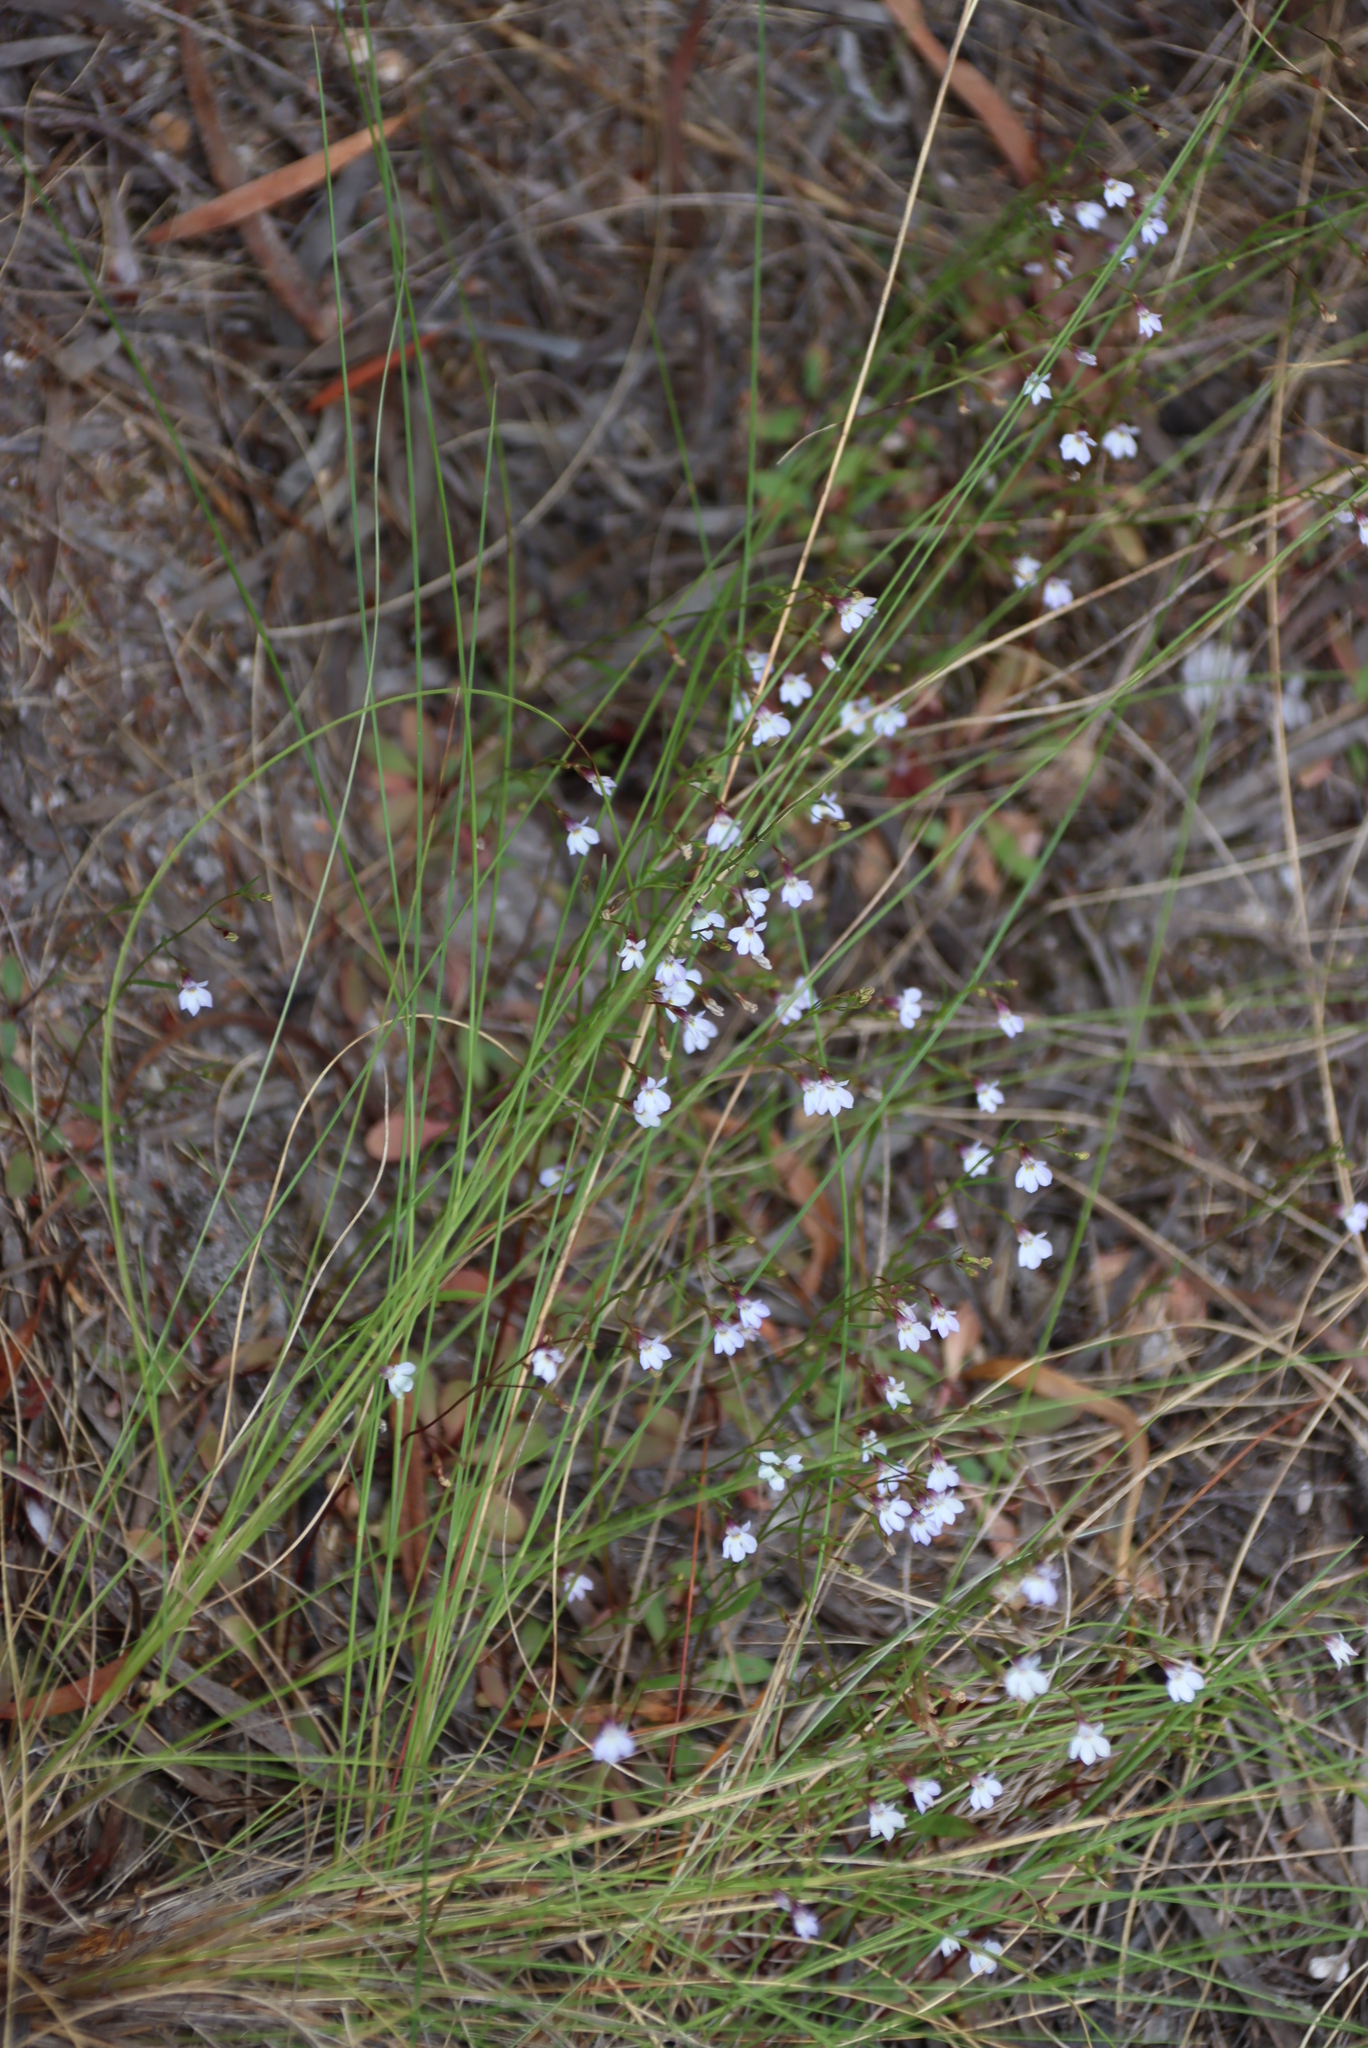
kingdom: Plantae
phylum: Tracheophyta
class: Magnoliopsida
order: Asterales
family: Campanulaceae
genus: Lobelia
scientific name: Lobelia erinus
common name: Edging lobelia
